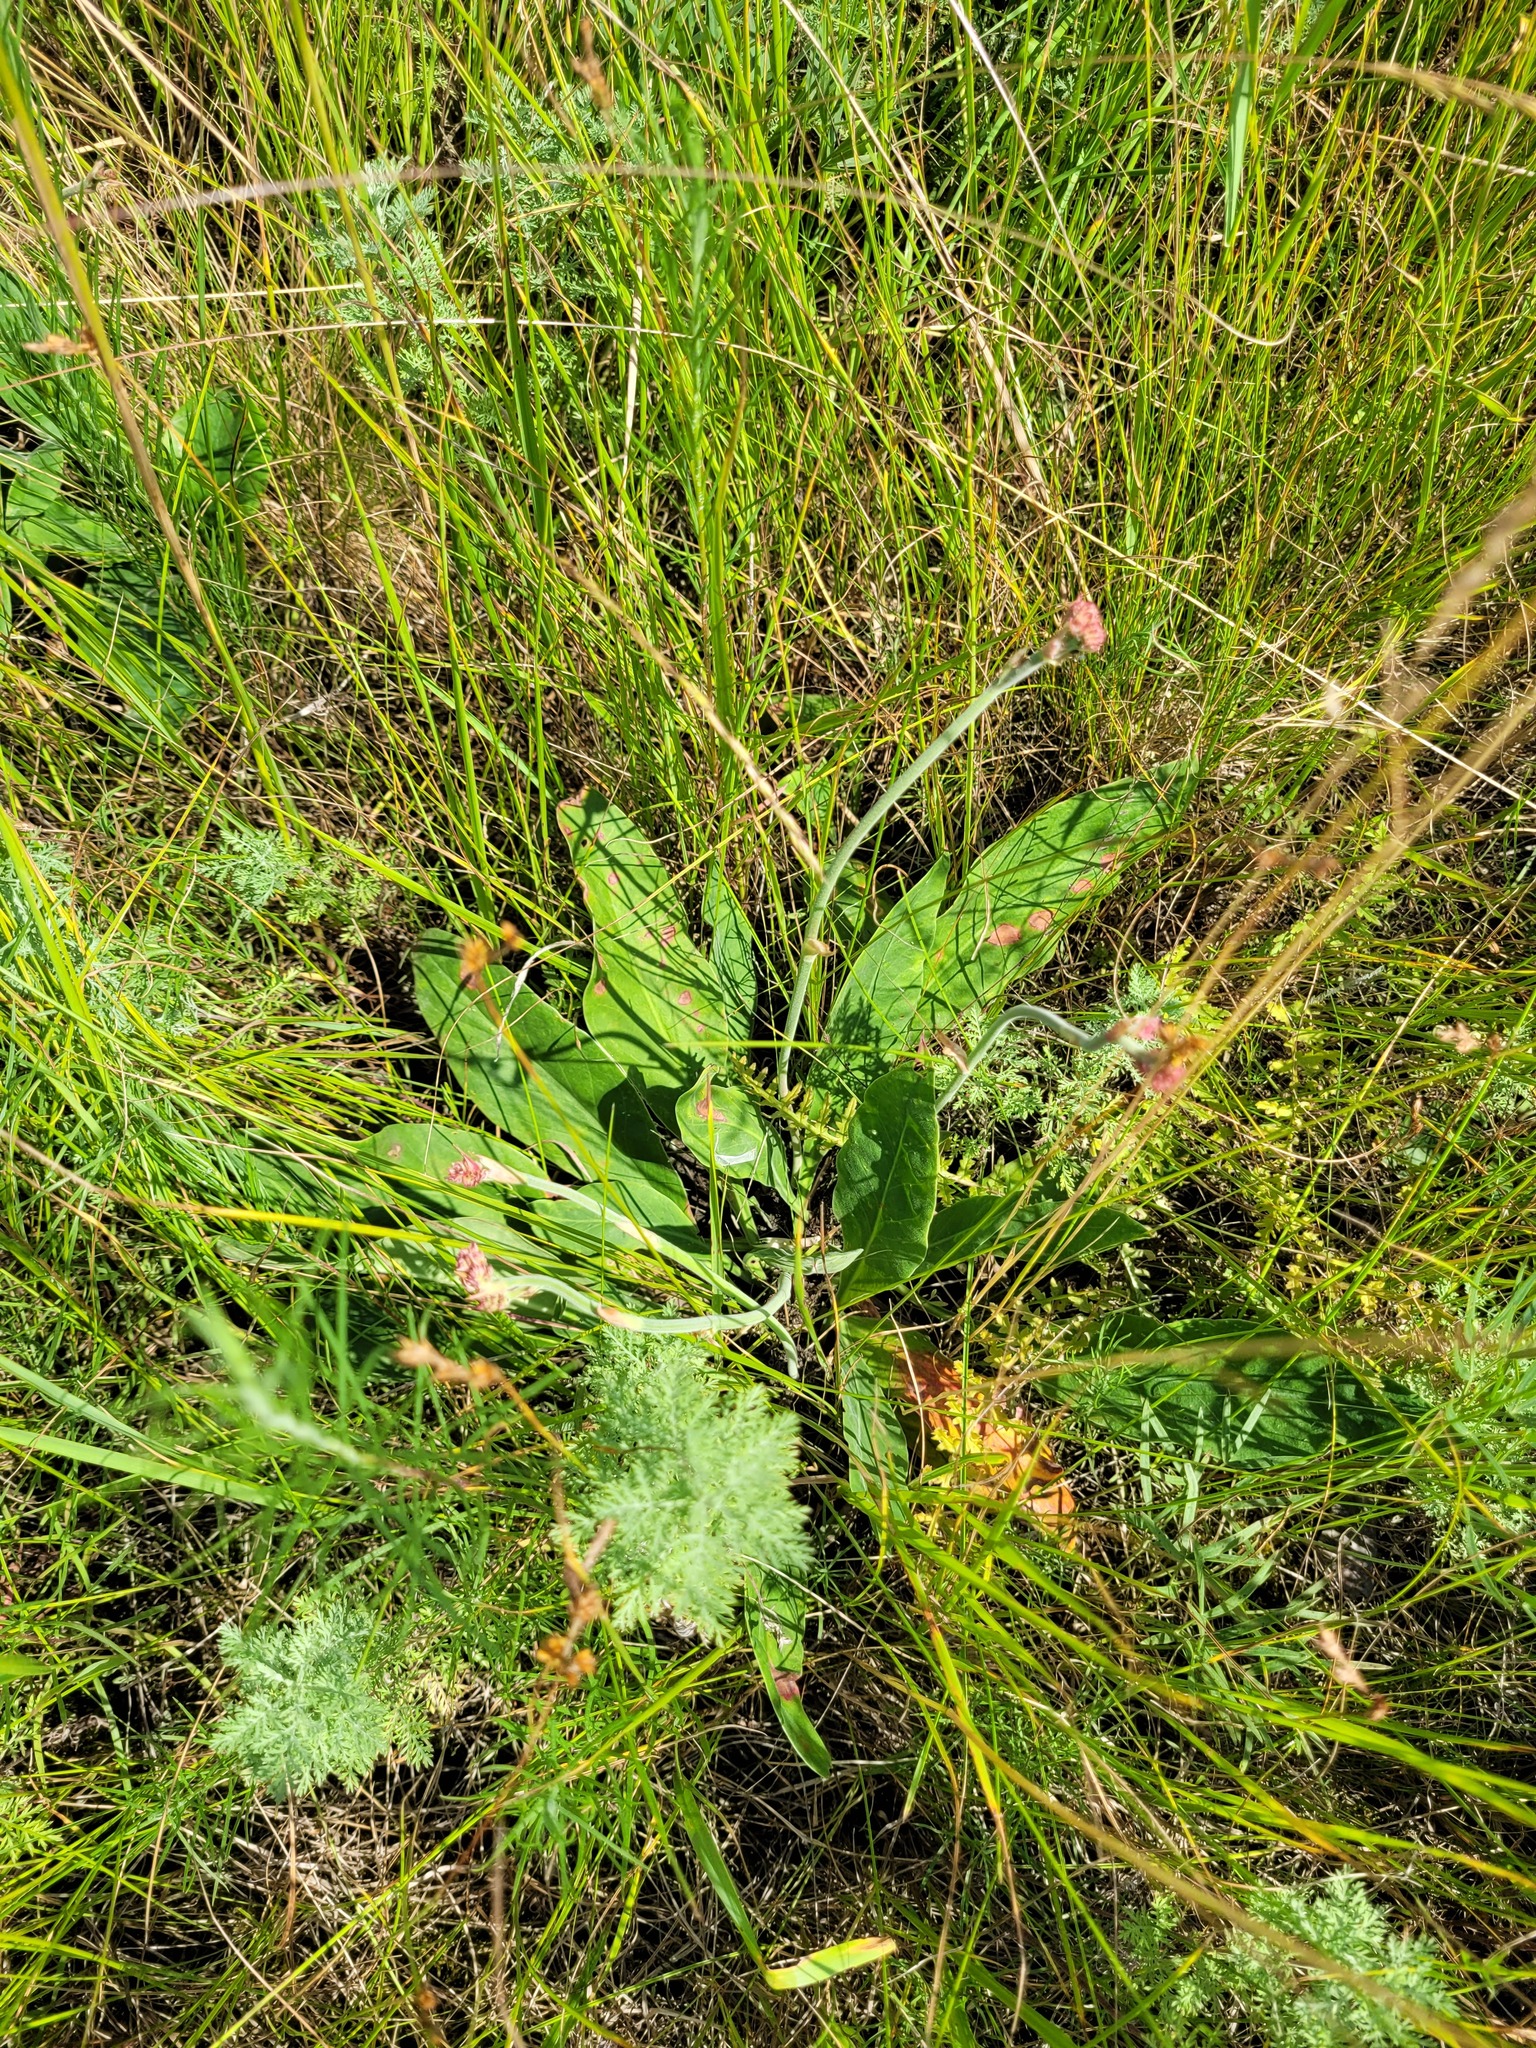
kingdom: Plantae
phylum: Tracheophyta
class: Magnoliopsida
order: Caryophyllales
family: Plumbaginaceae
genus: Limonium
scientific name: Limonium tomentellum
